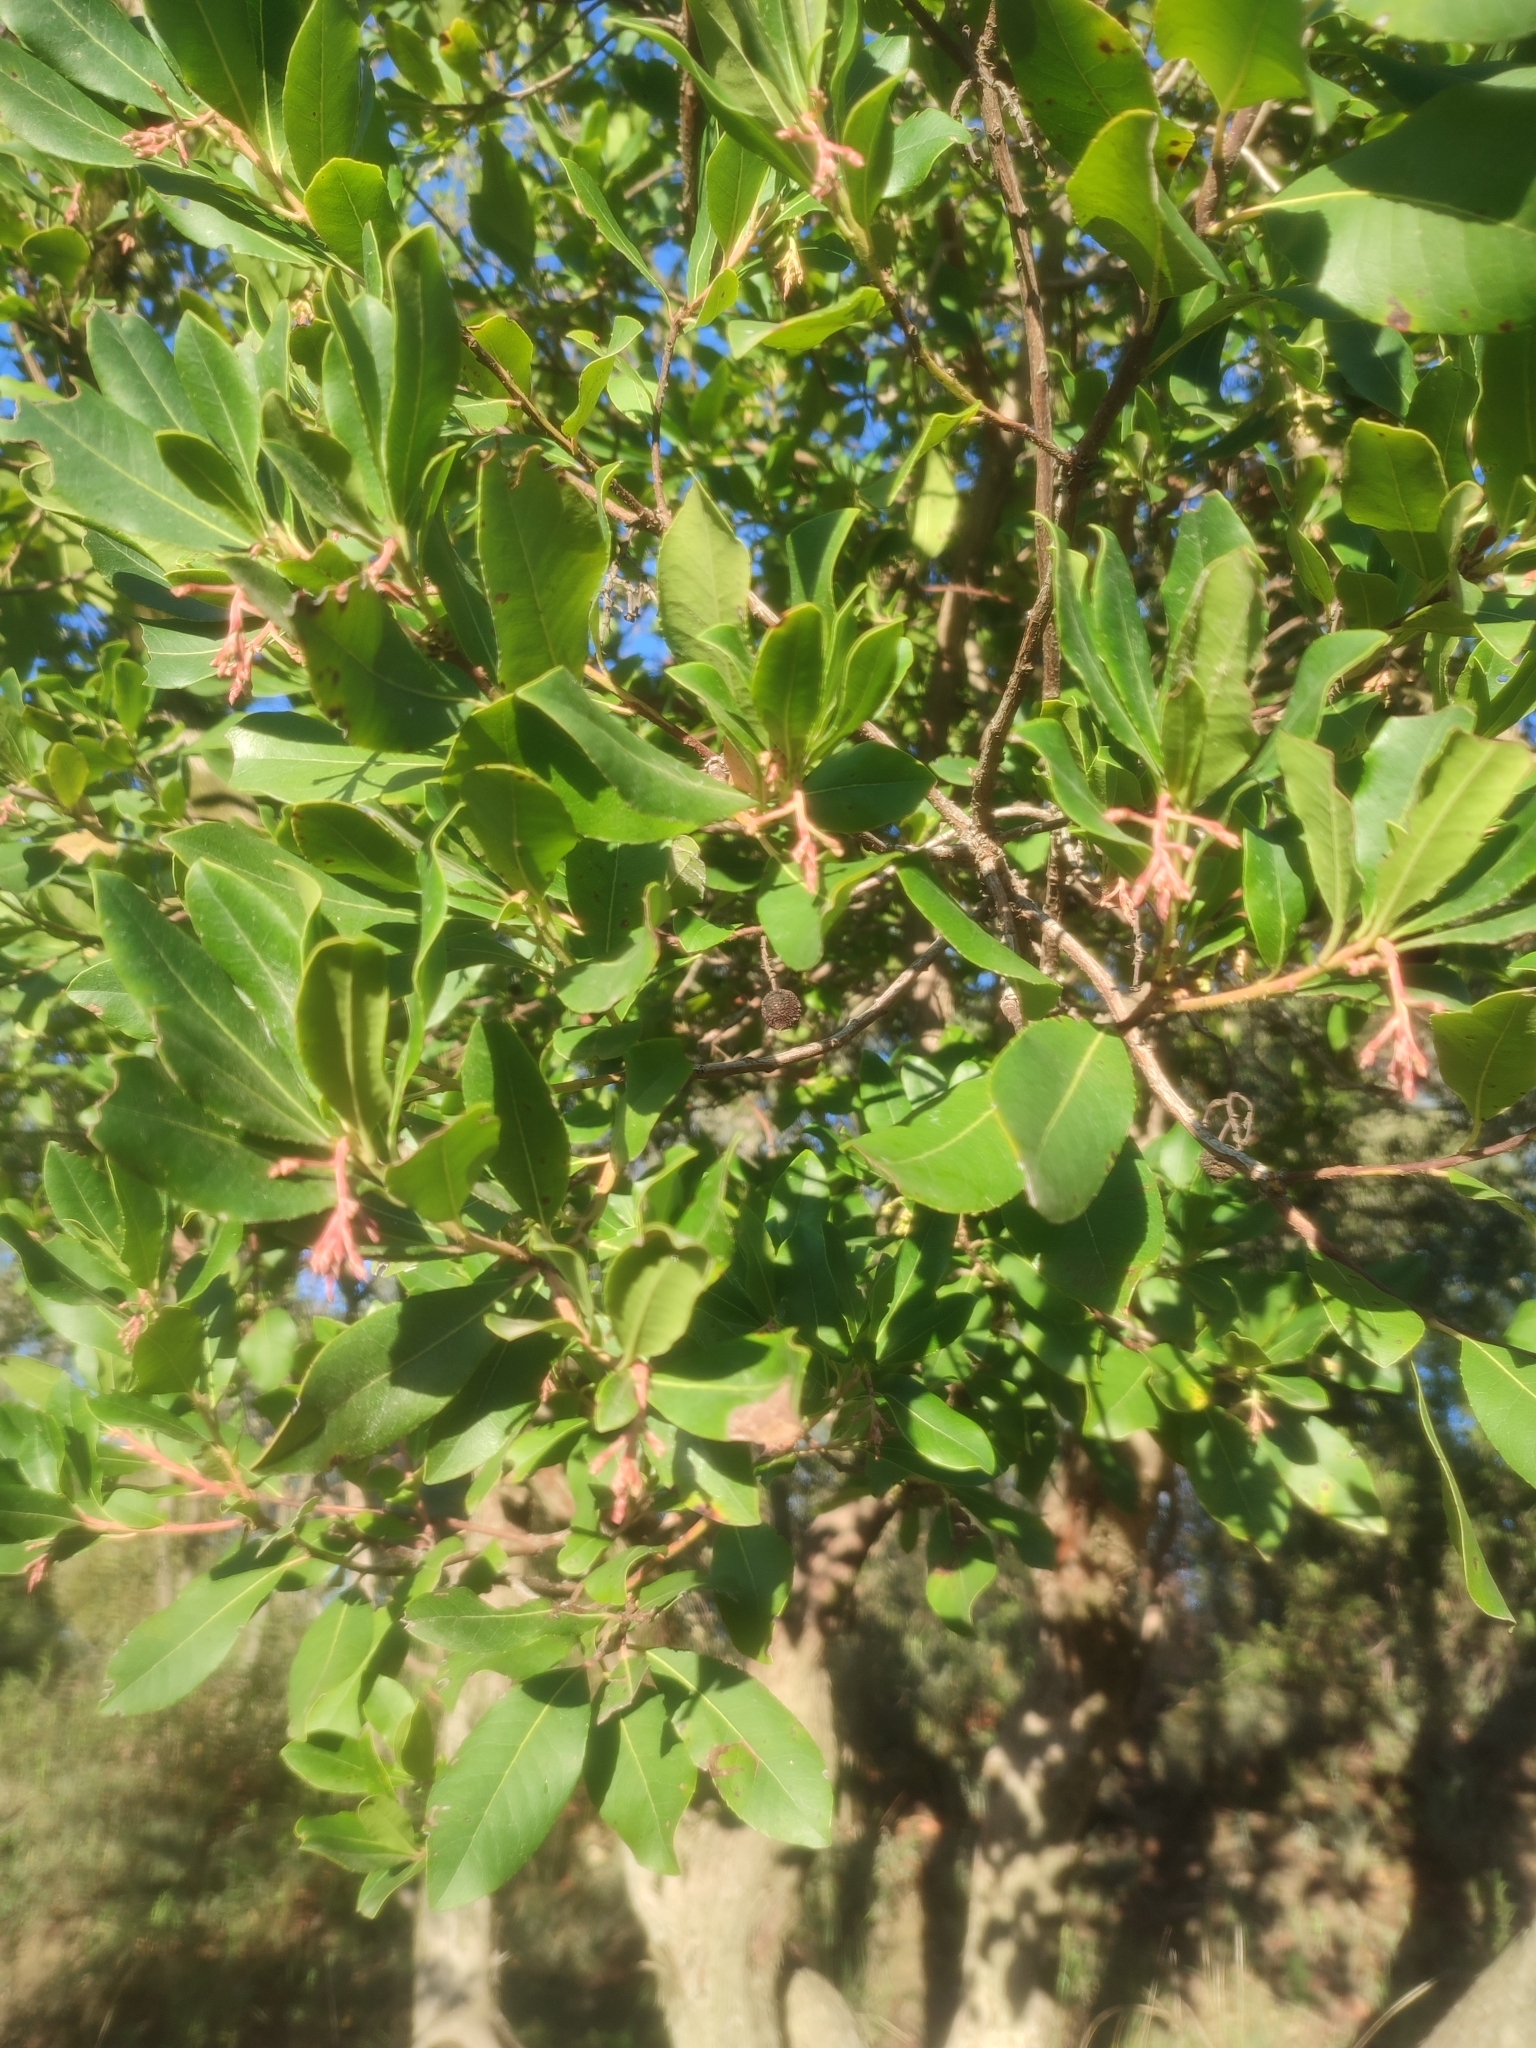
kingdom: Plantae
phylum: Tracheophyta
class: Magnoliopsida
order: Ericales
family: Ericaceae
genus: Arbutus
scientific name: Arbutus unedo
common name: Strawberry-tree
